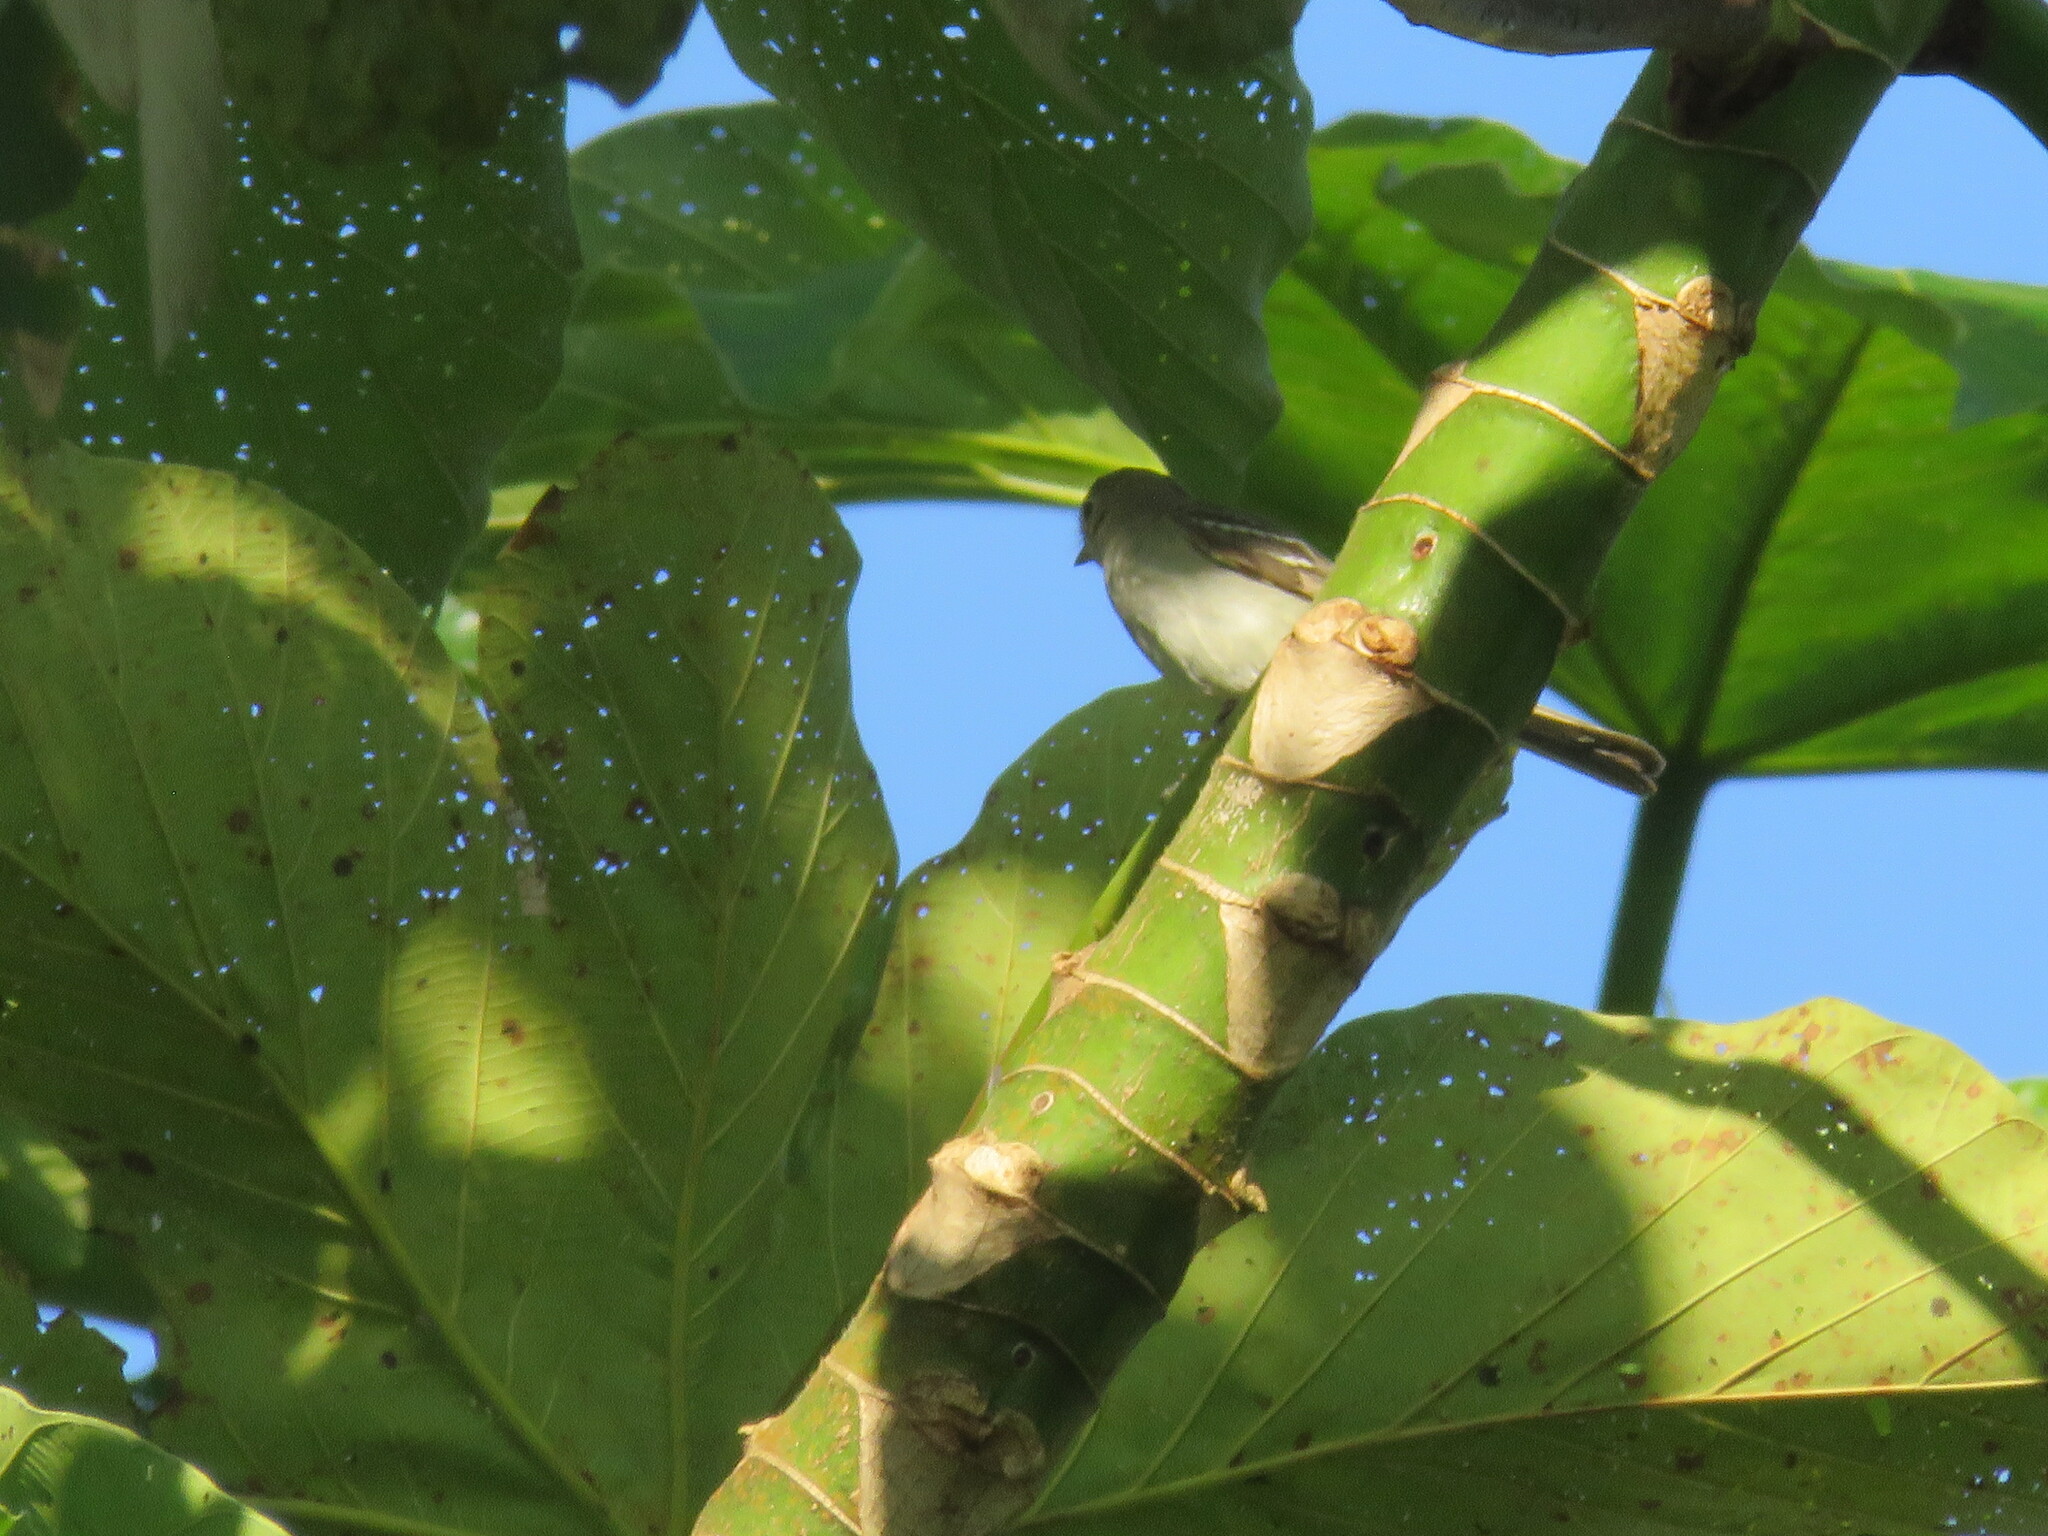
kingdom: Animalia
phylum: Chordata
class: Aves
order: Passeriformes
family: Tyrannidae
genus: Elaenia
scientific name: Elaenia parvirostris
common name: Small-billed elaenia
